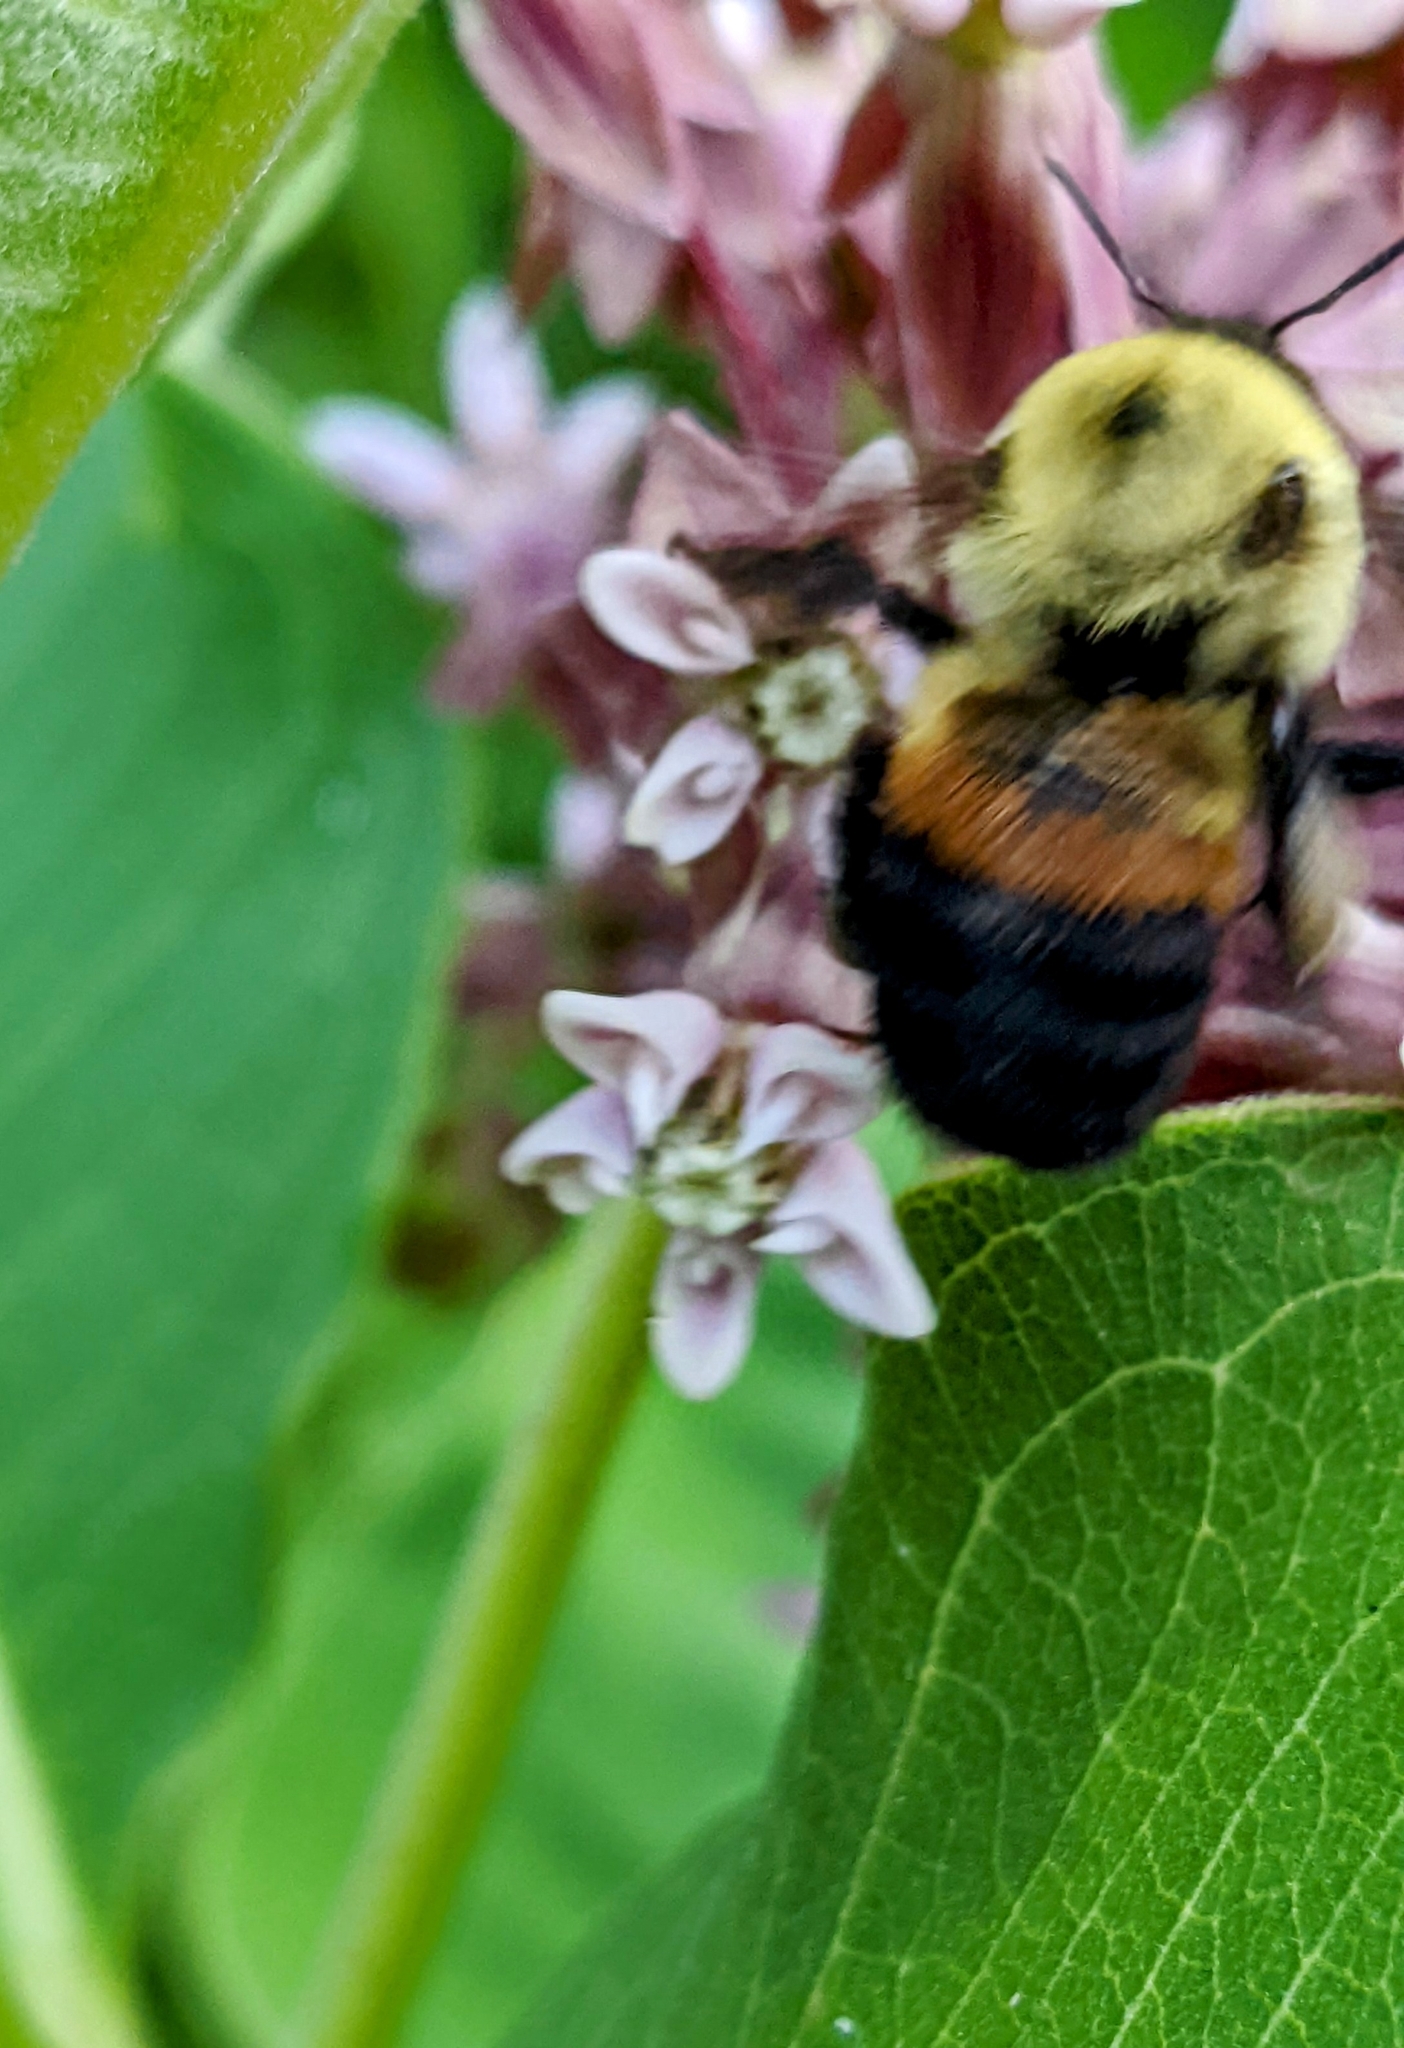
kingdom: Animalia
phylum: Arthropoda
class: Insecta
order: Hymenoptera
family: Apidae
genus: Bombus
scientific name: Bombus griseocollis
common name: Brown-belted bumble bee
